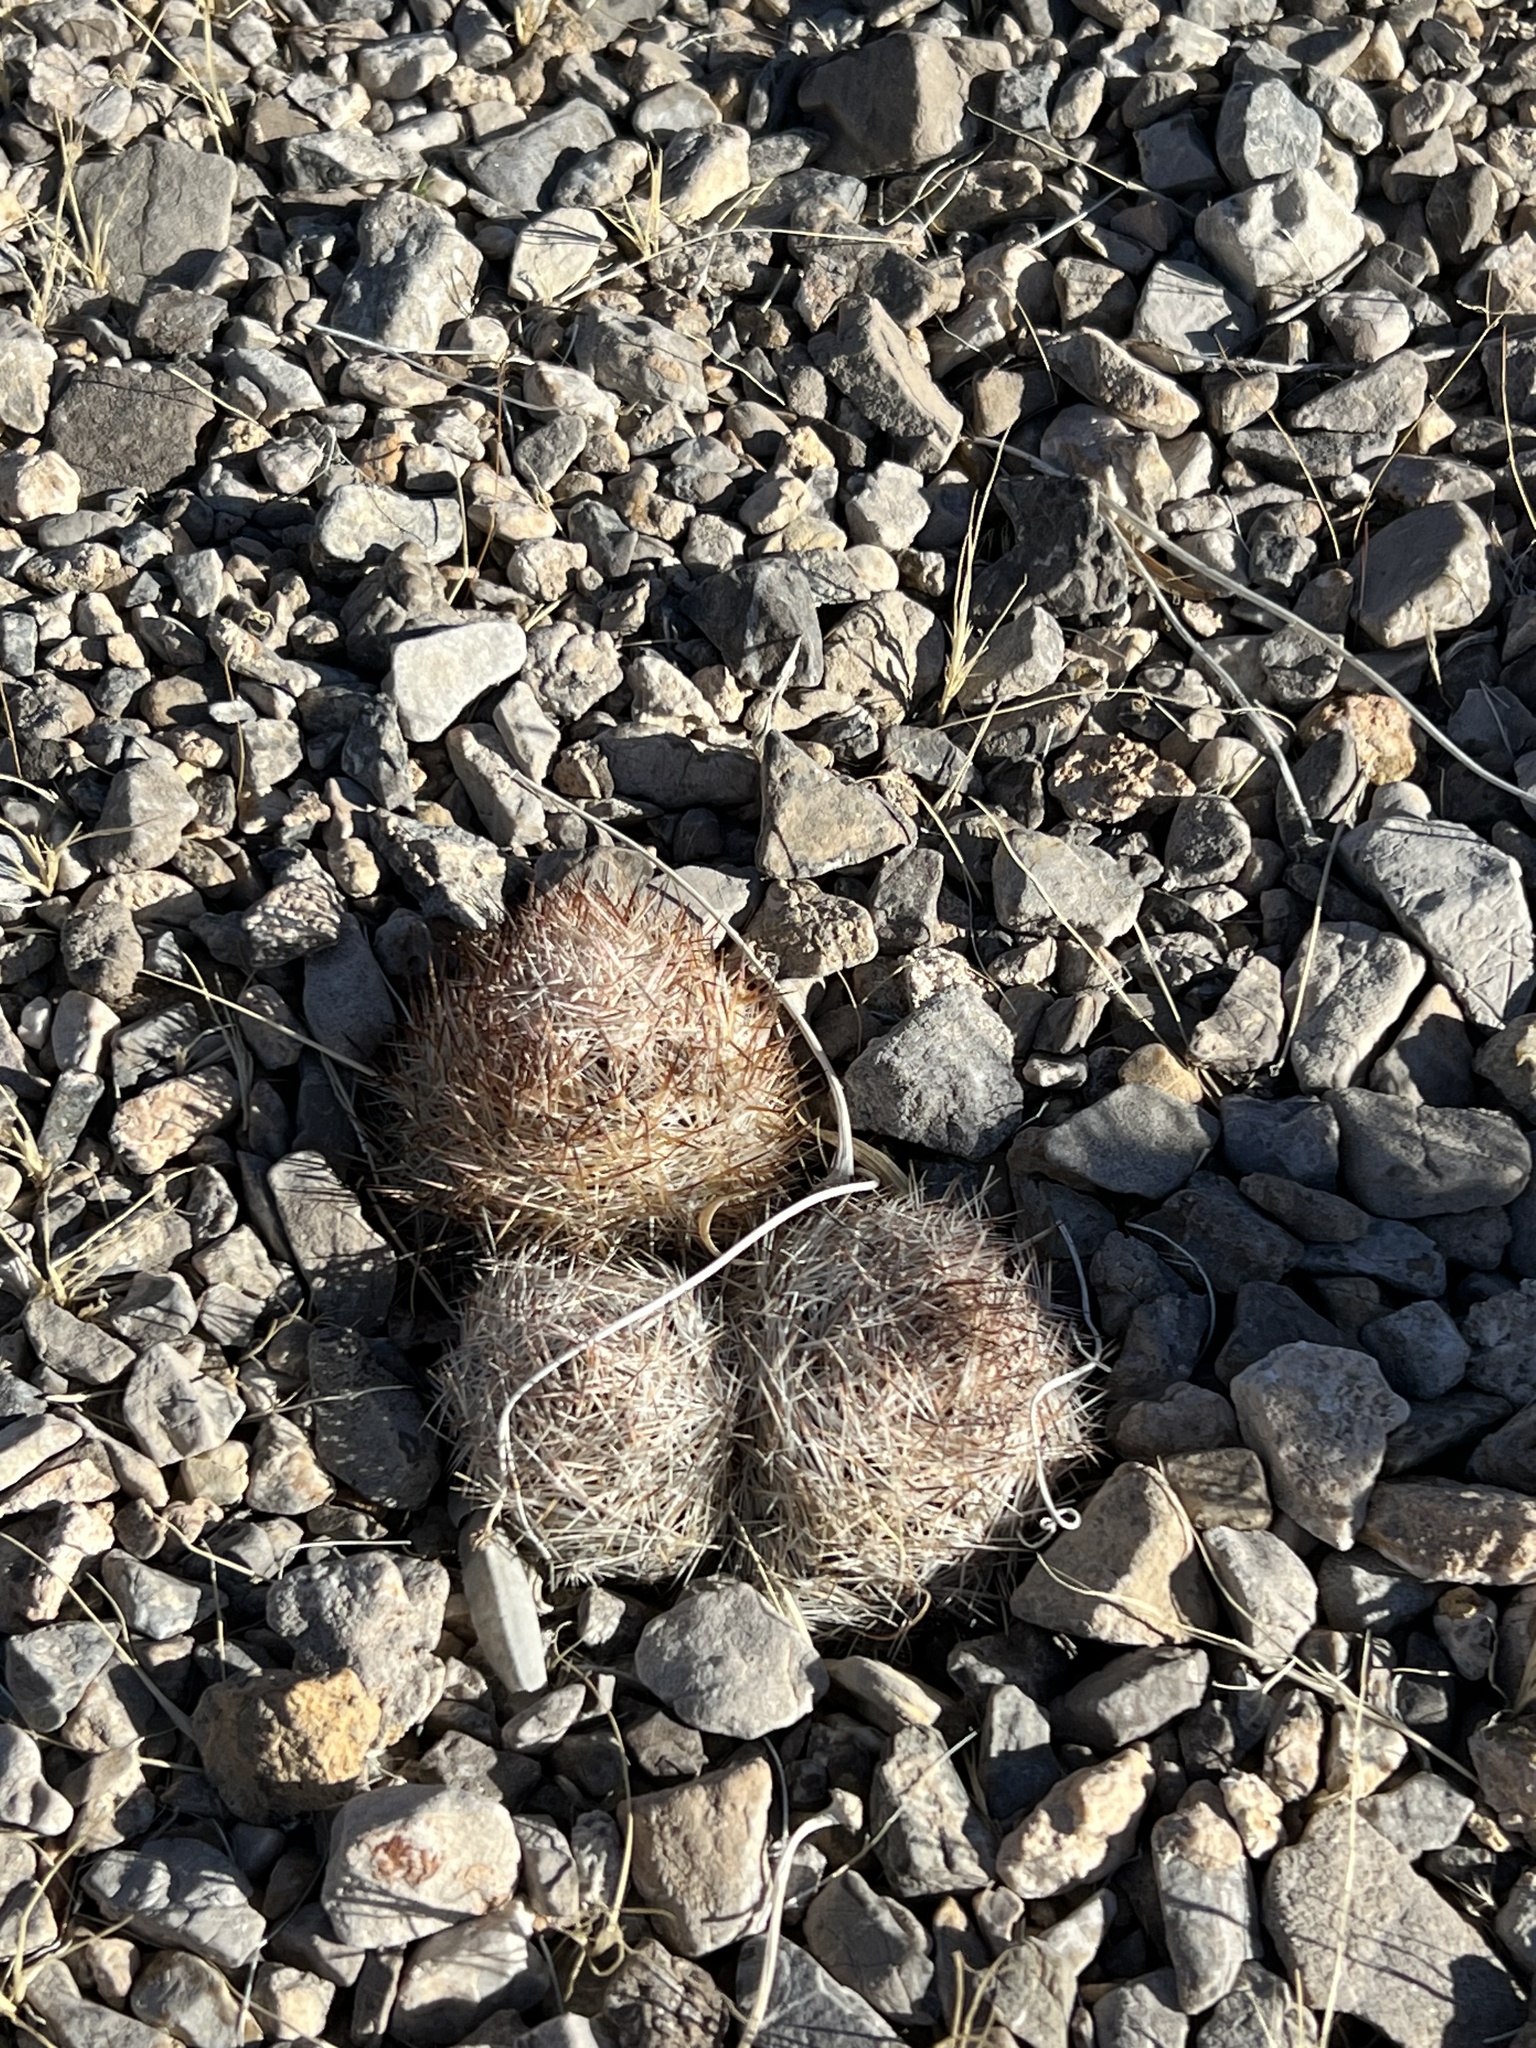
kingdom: Plantae
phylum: Tracheophyta
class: Magnoliopsida
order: Caryophyllales
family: Cactaceae
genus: Pelecyphora
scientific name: Pelecyphora dasyacantha
